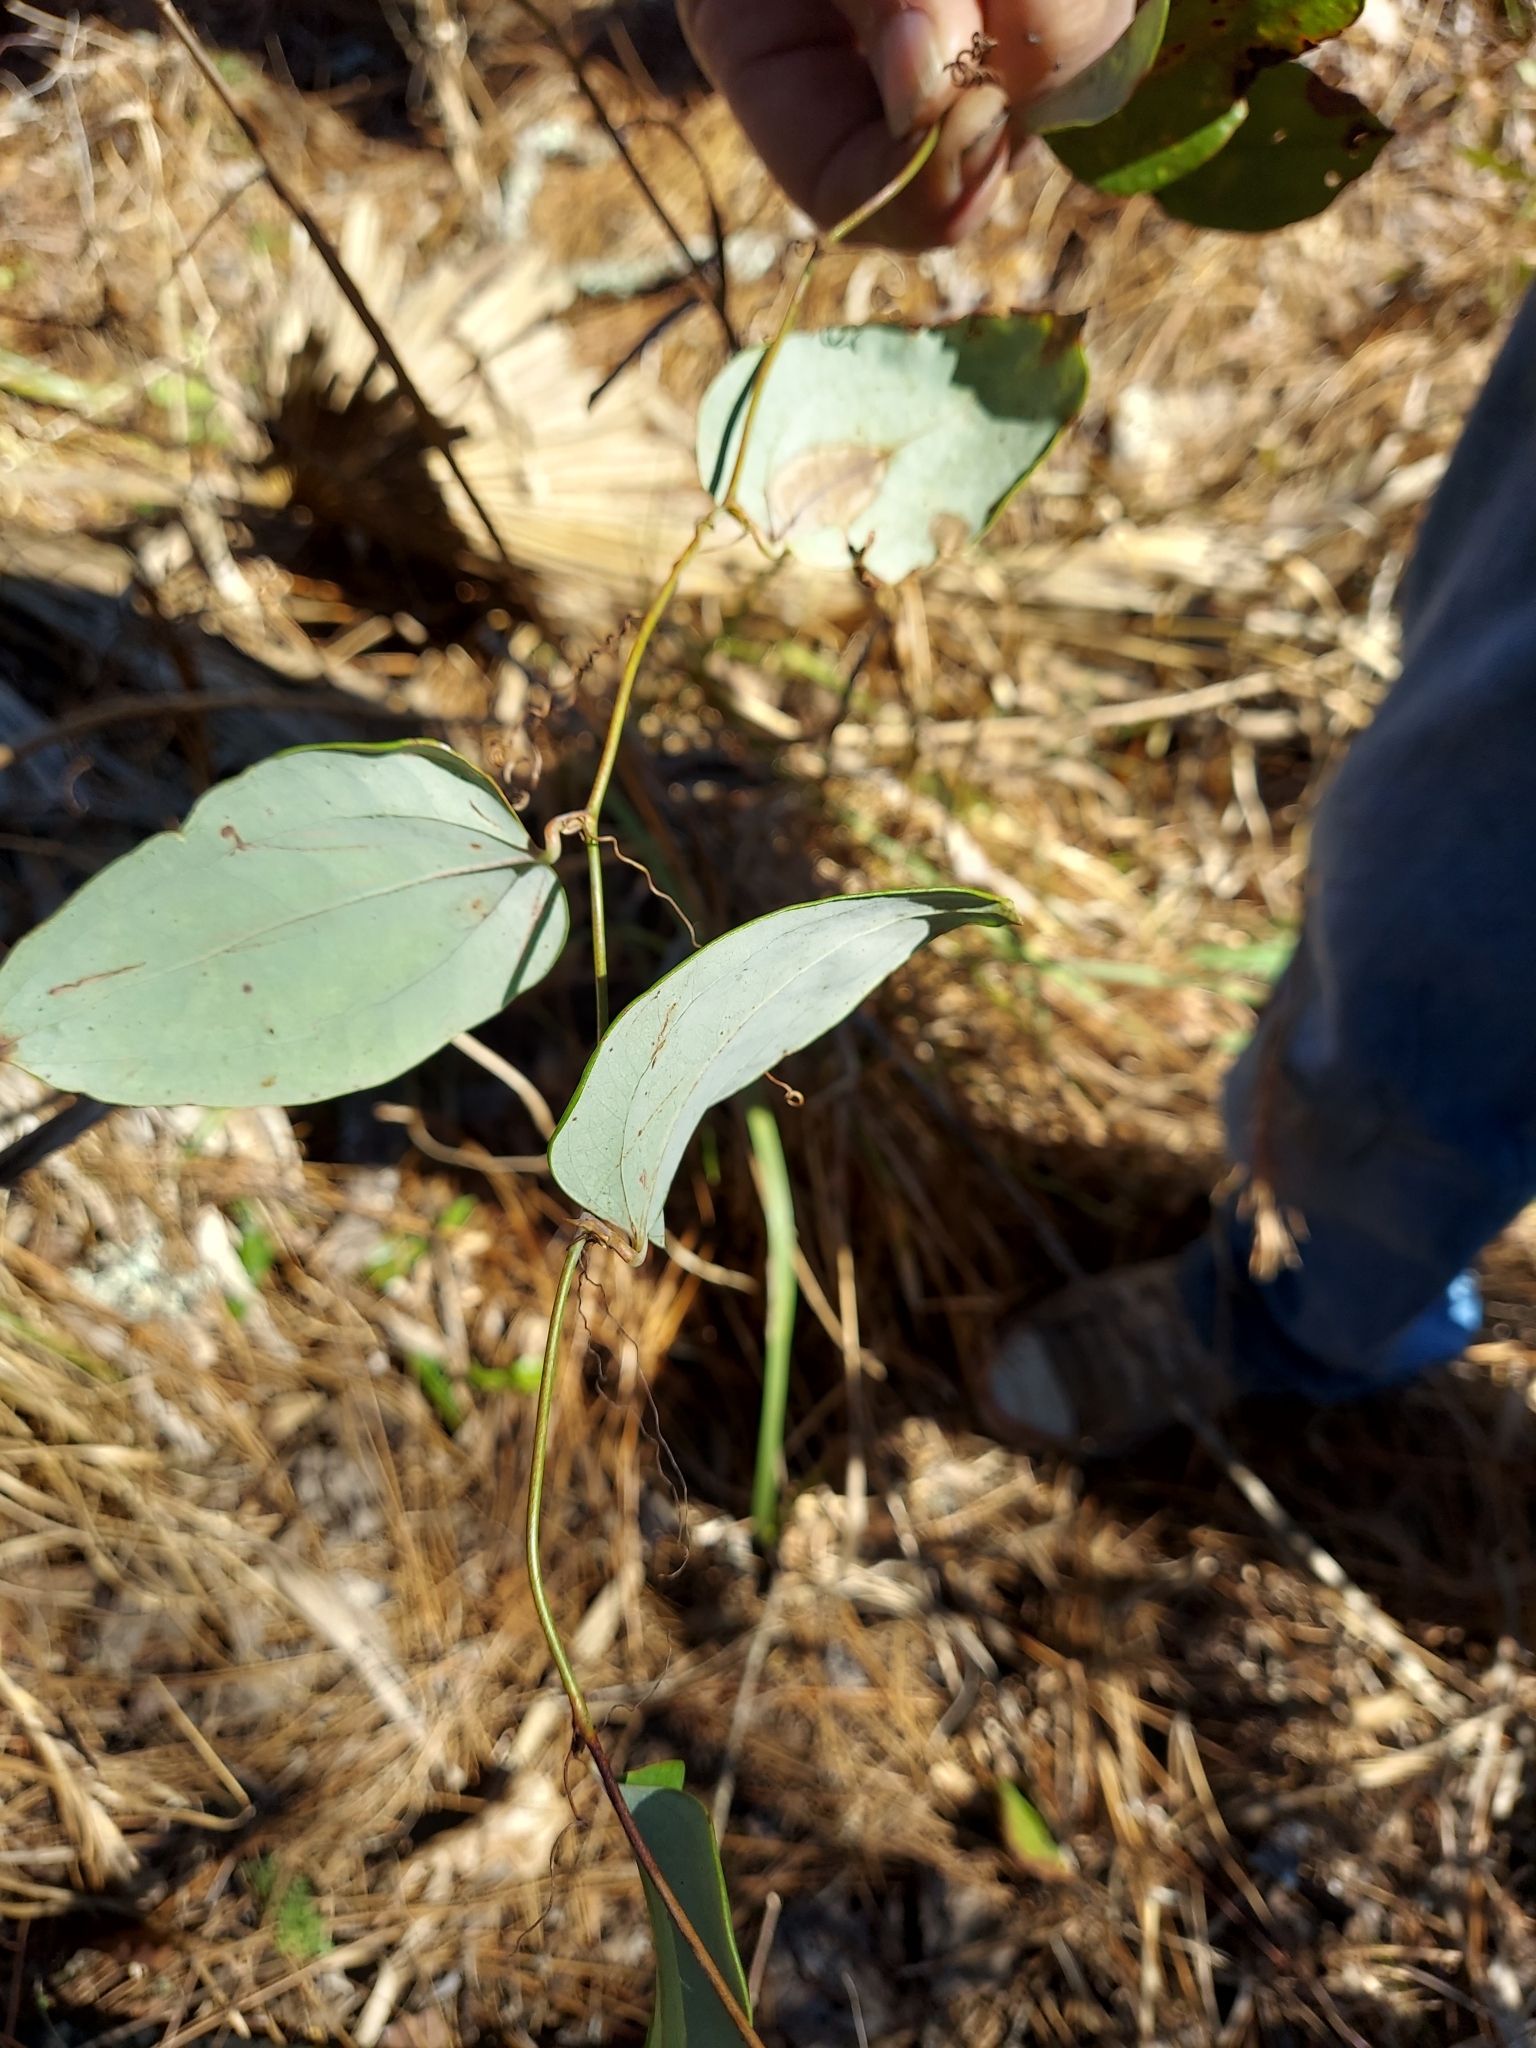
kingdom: Plantae
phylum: Tracheophyta
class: Liliopsida
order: Liliales
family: Smilacaceae
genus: Smilax
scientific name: Smilax glauca
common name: Cat greenbrier
